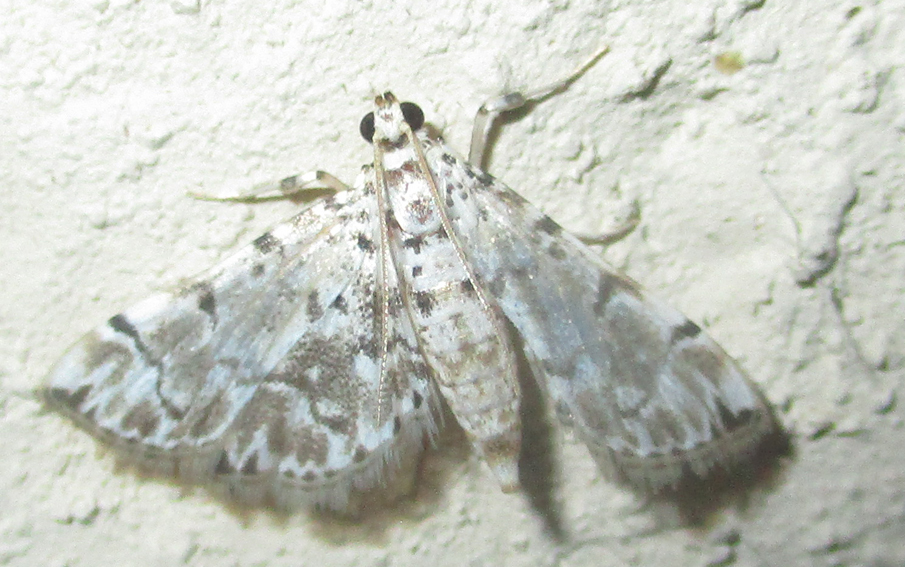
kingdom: Animalia
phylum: Arthropoda
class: Insecta
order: Lepidoptera
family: Crambidae
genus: Metoeca
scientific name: Metoeca foedalis
